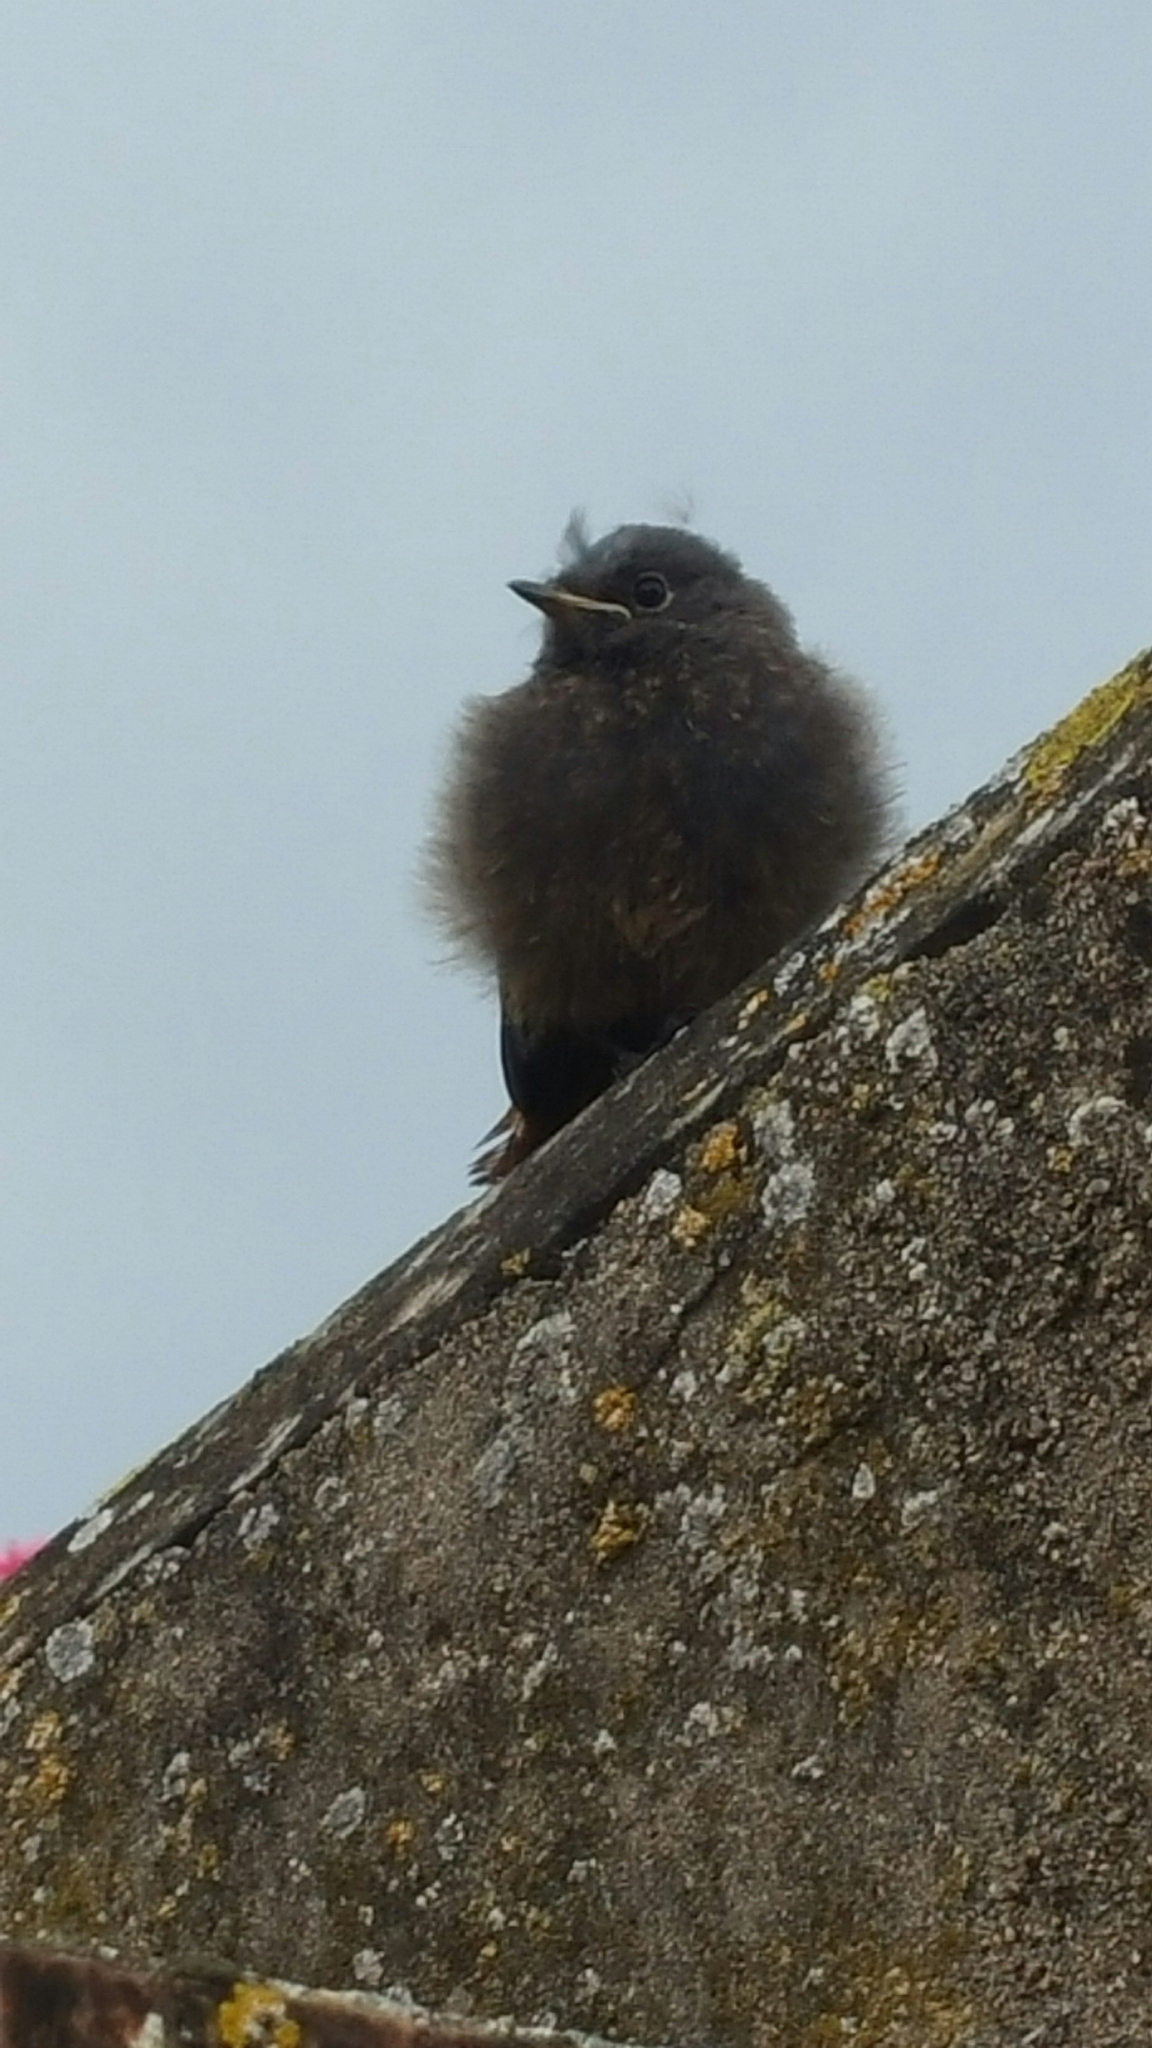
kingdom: Animalia
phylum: Chordata
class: Aves
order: Passeriformes
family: Muscicapidae
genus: Phoenicurus
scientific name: Phoenicurus ochruros
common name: Black redstart
